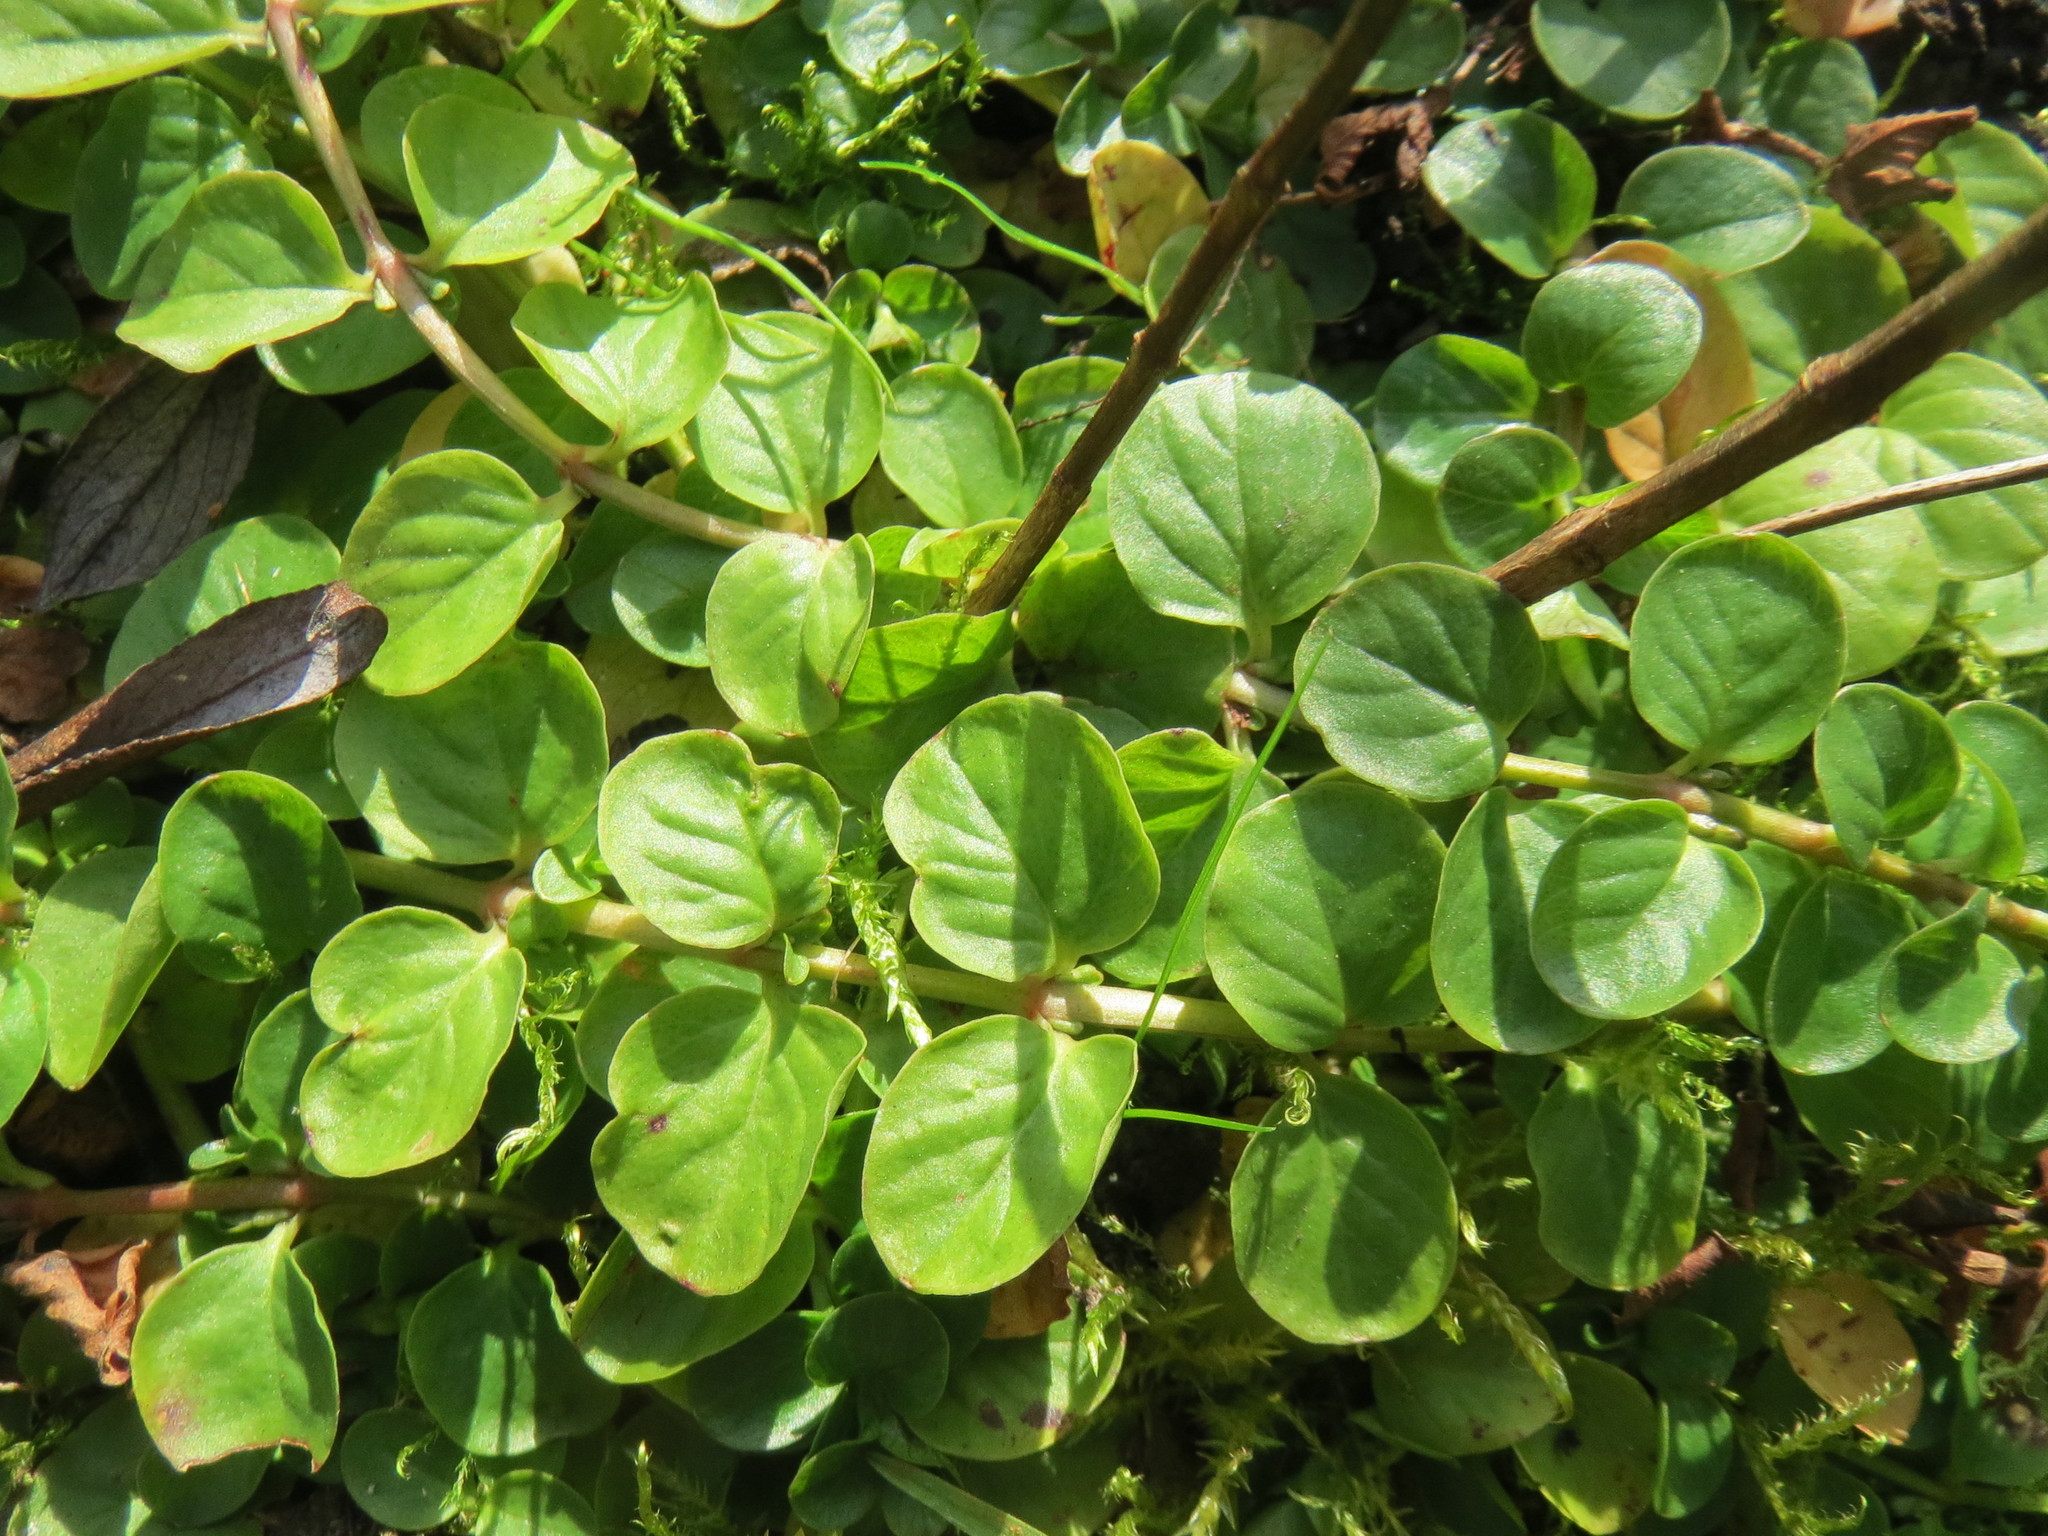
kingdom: Plantae
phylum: Tracheophyta
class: Magnoliopsida
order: Ericales
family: Primulaceae
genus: Lysimachia
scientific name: Lysimachia nummularia
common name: Moneywort
